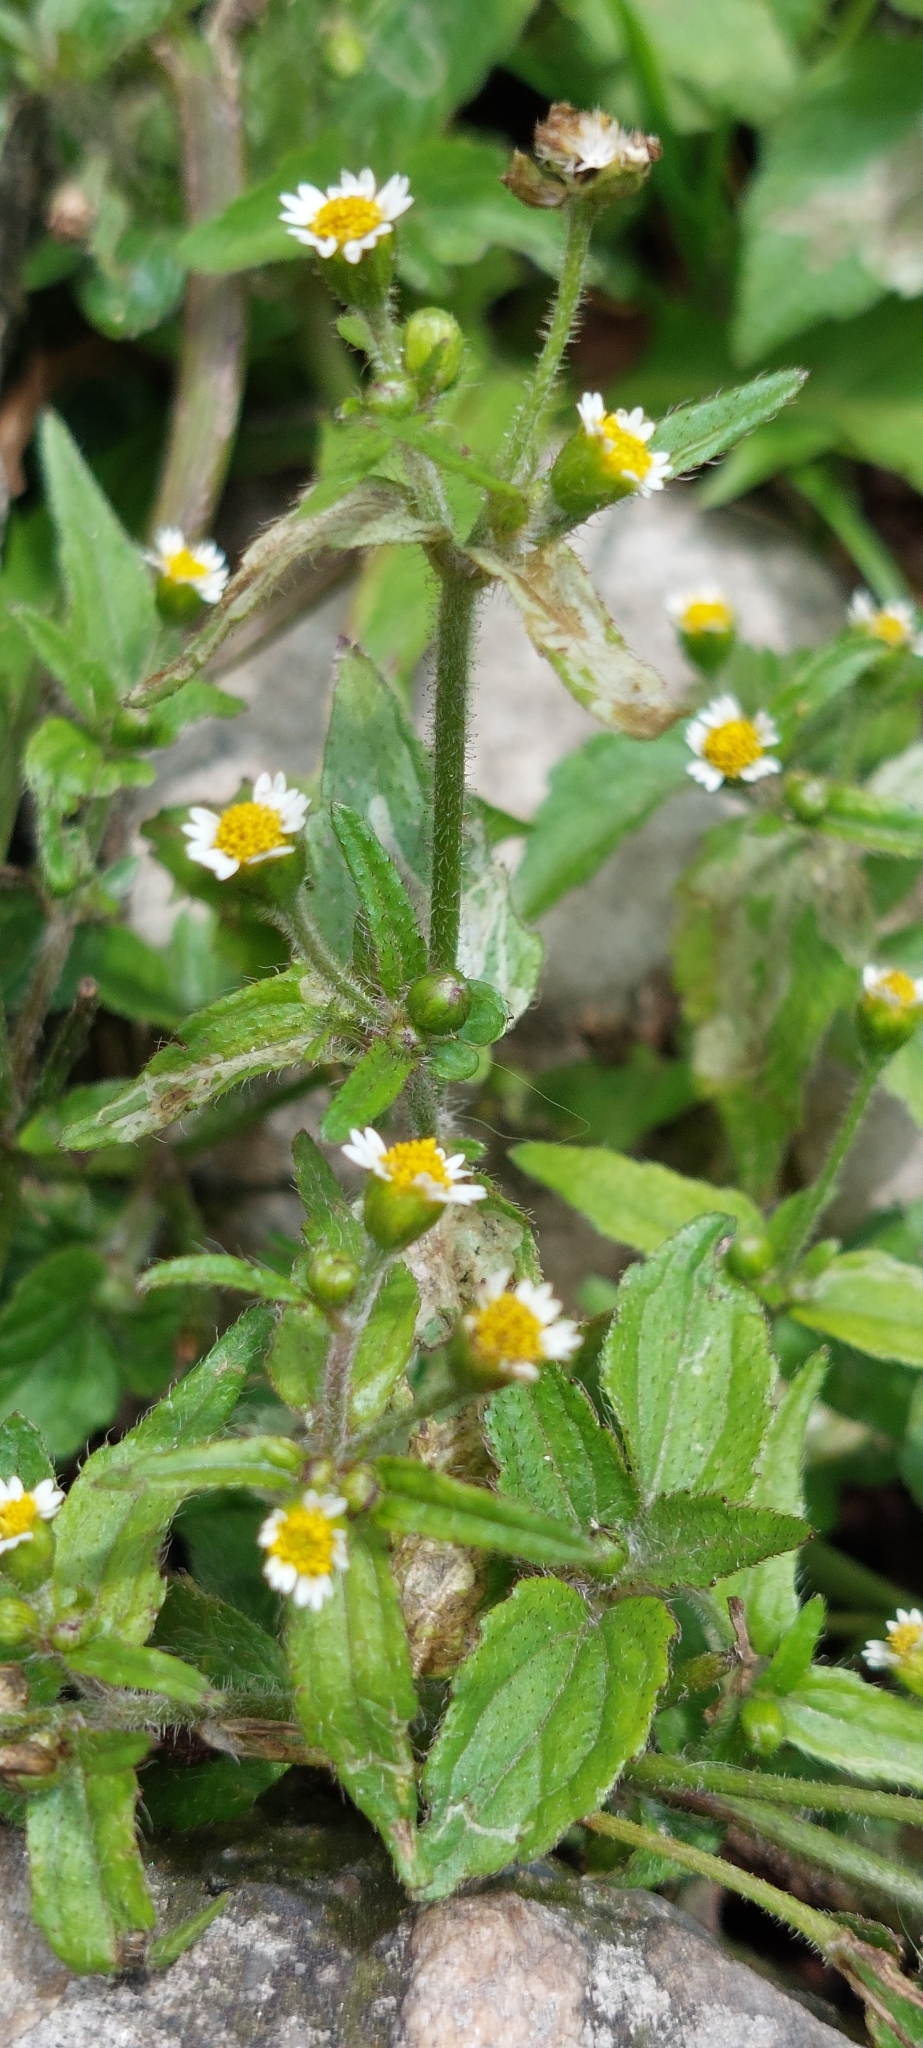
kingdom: Plantae
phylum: Tracheophyta
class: Magnoliopsida
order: Asterales
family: Asteraceae
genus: Galinsoga
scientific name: Galinsoga quadriradiata
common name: Shaggy soldier
